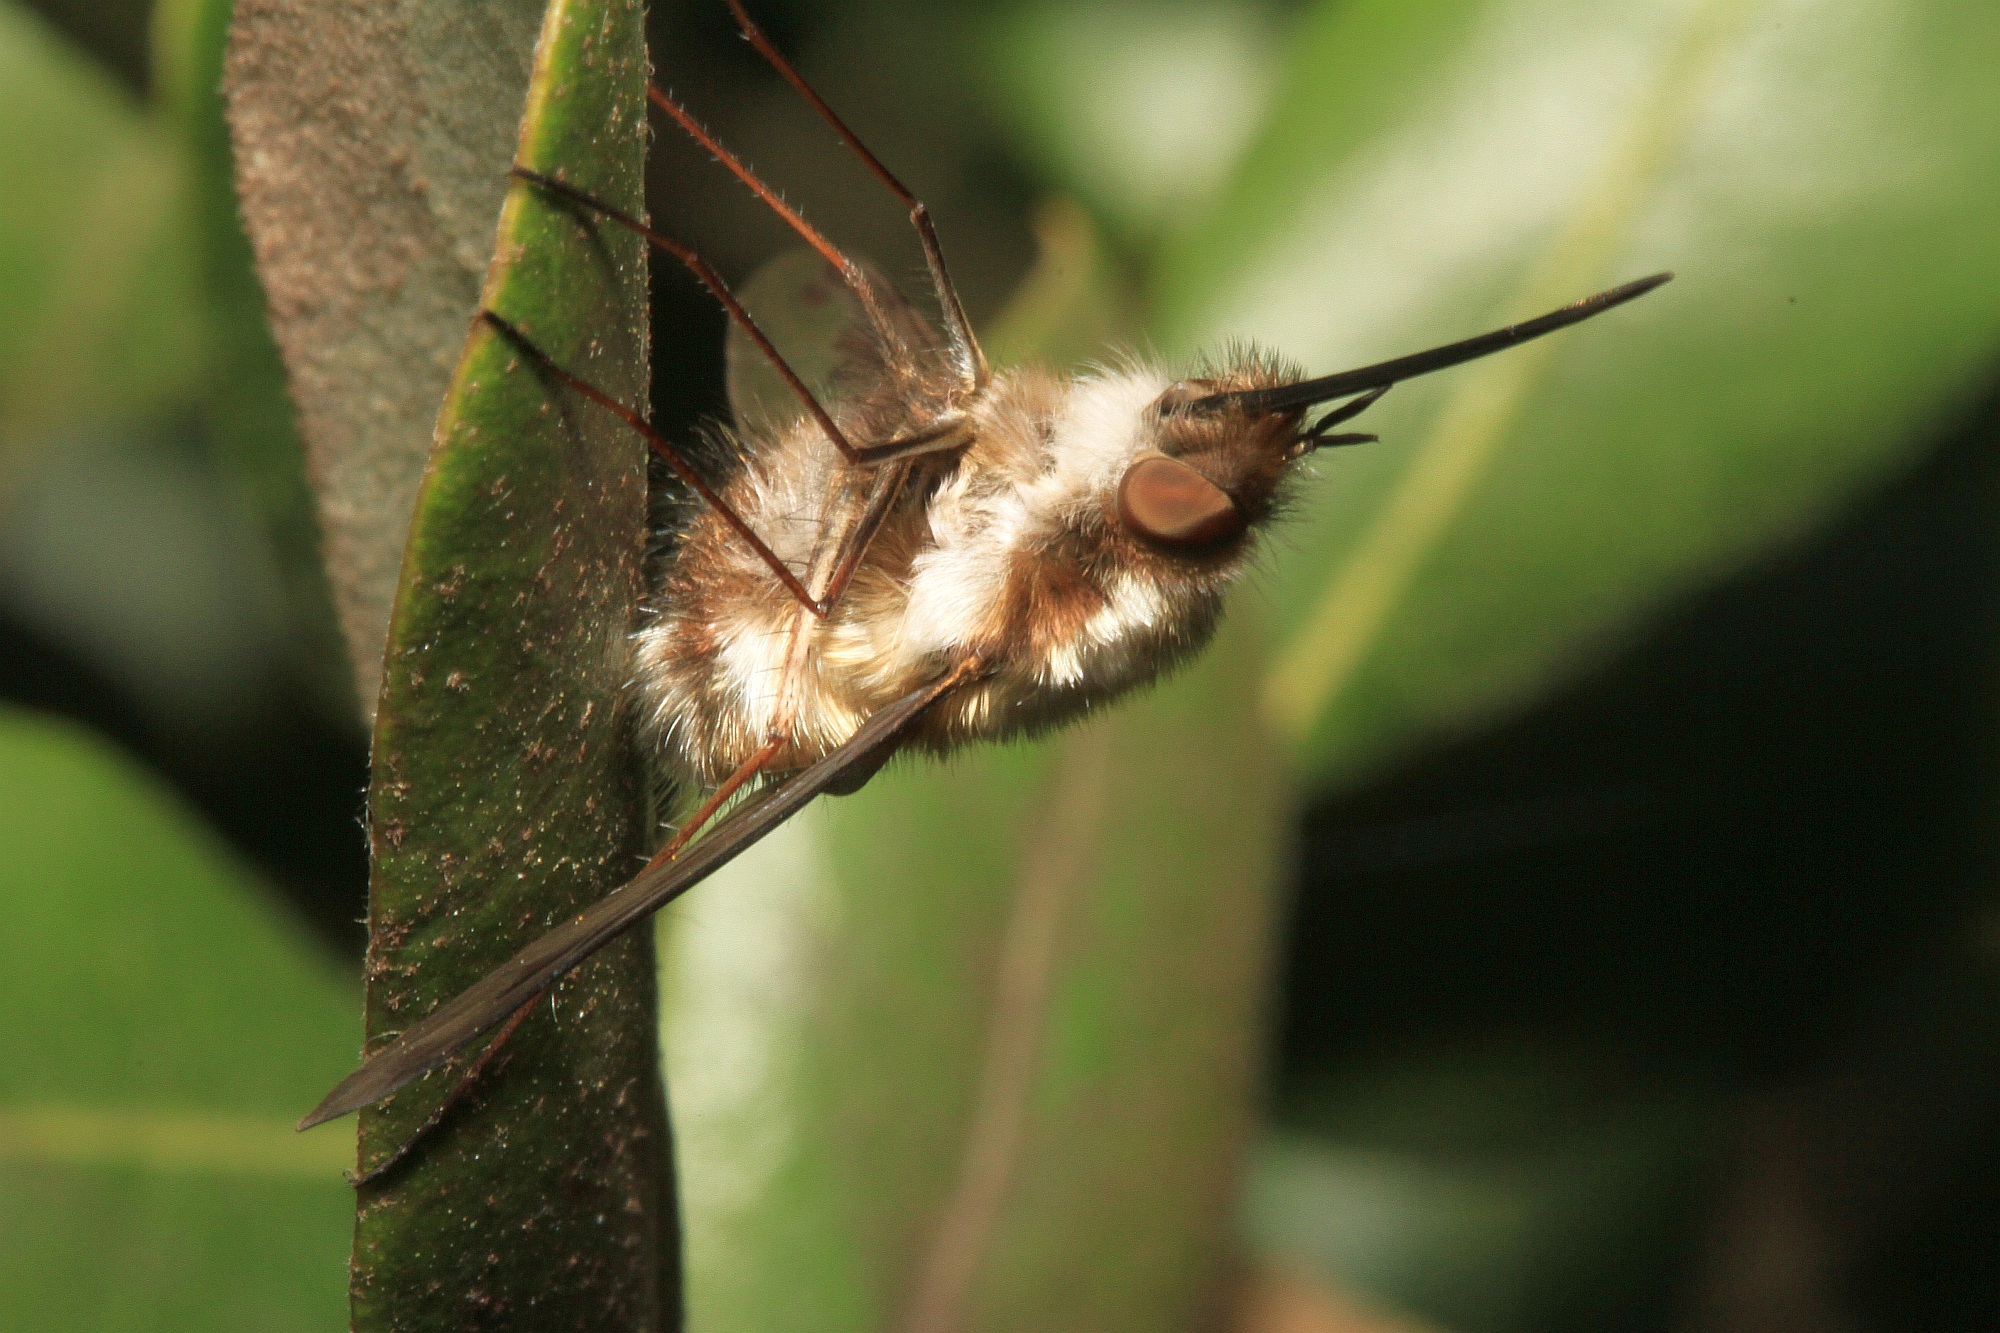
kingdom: Animalia
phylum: Arthropoda
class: Insecta
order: Diptera
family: Bombyliidae
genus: Bombylius
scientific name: Bombylius major
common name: Bee fly
